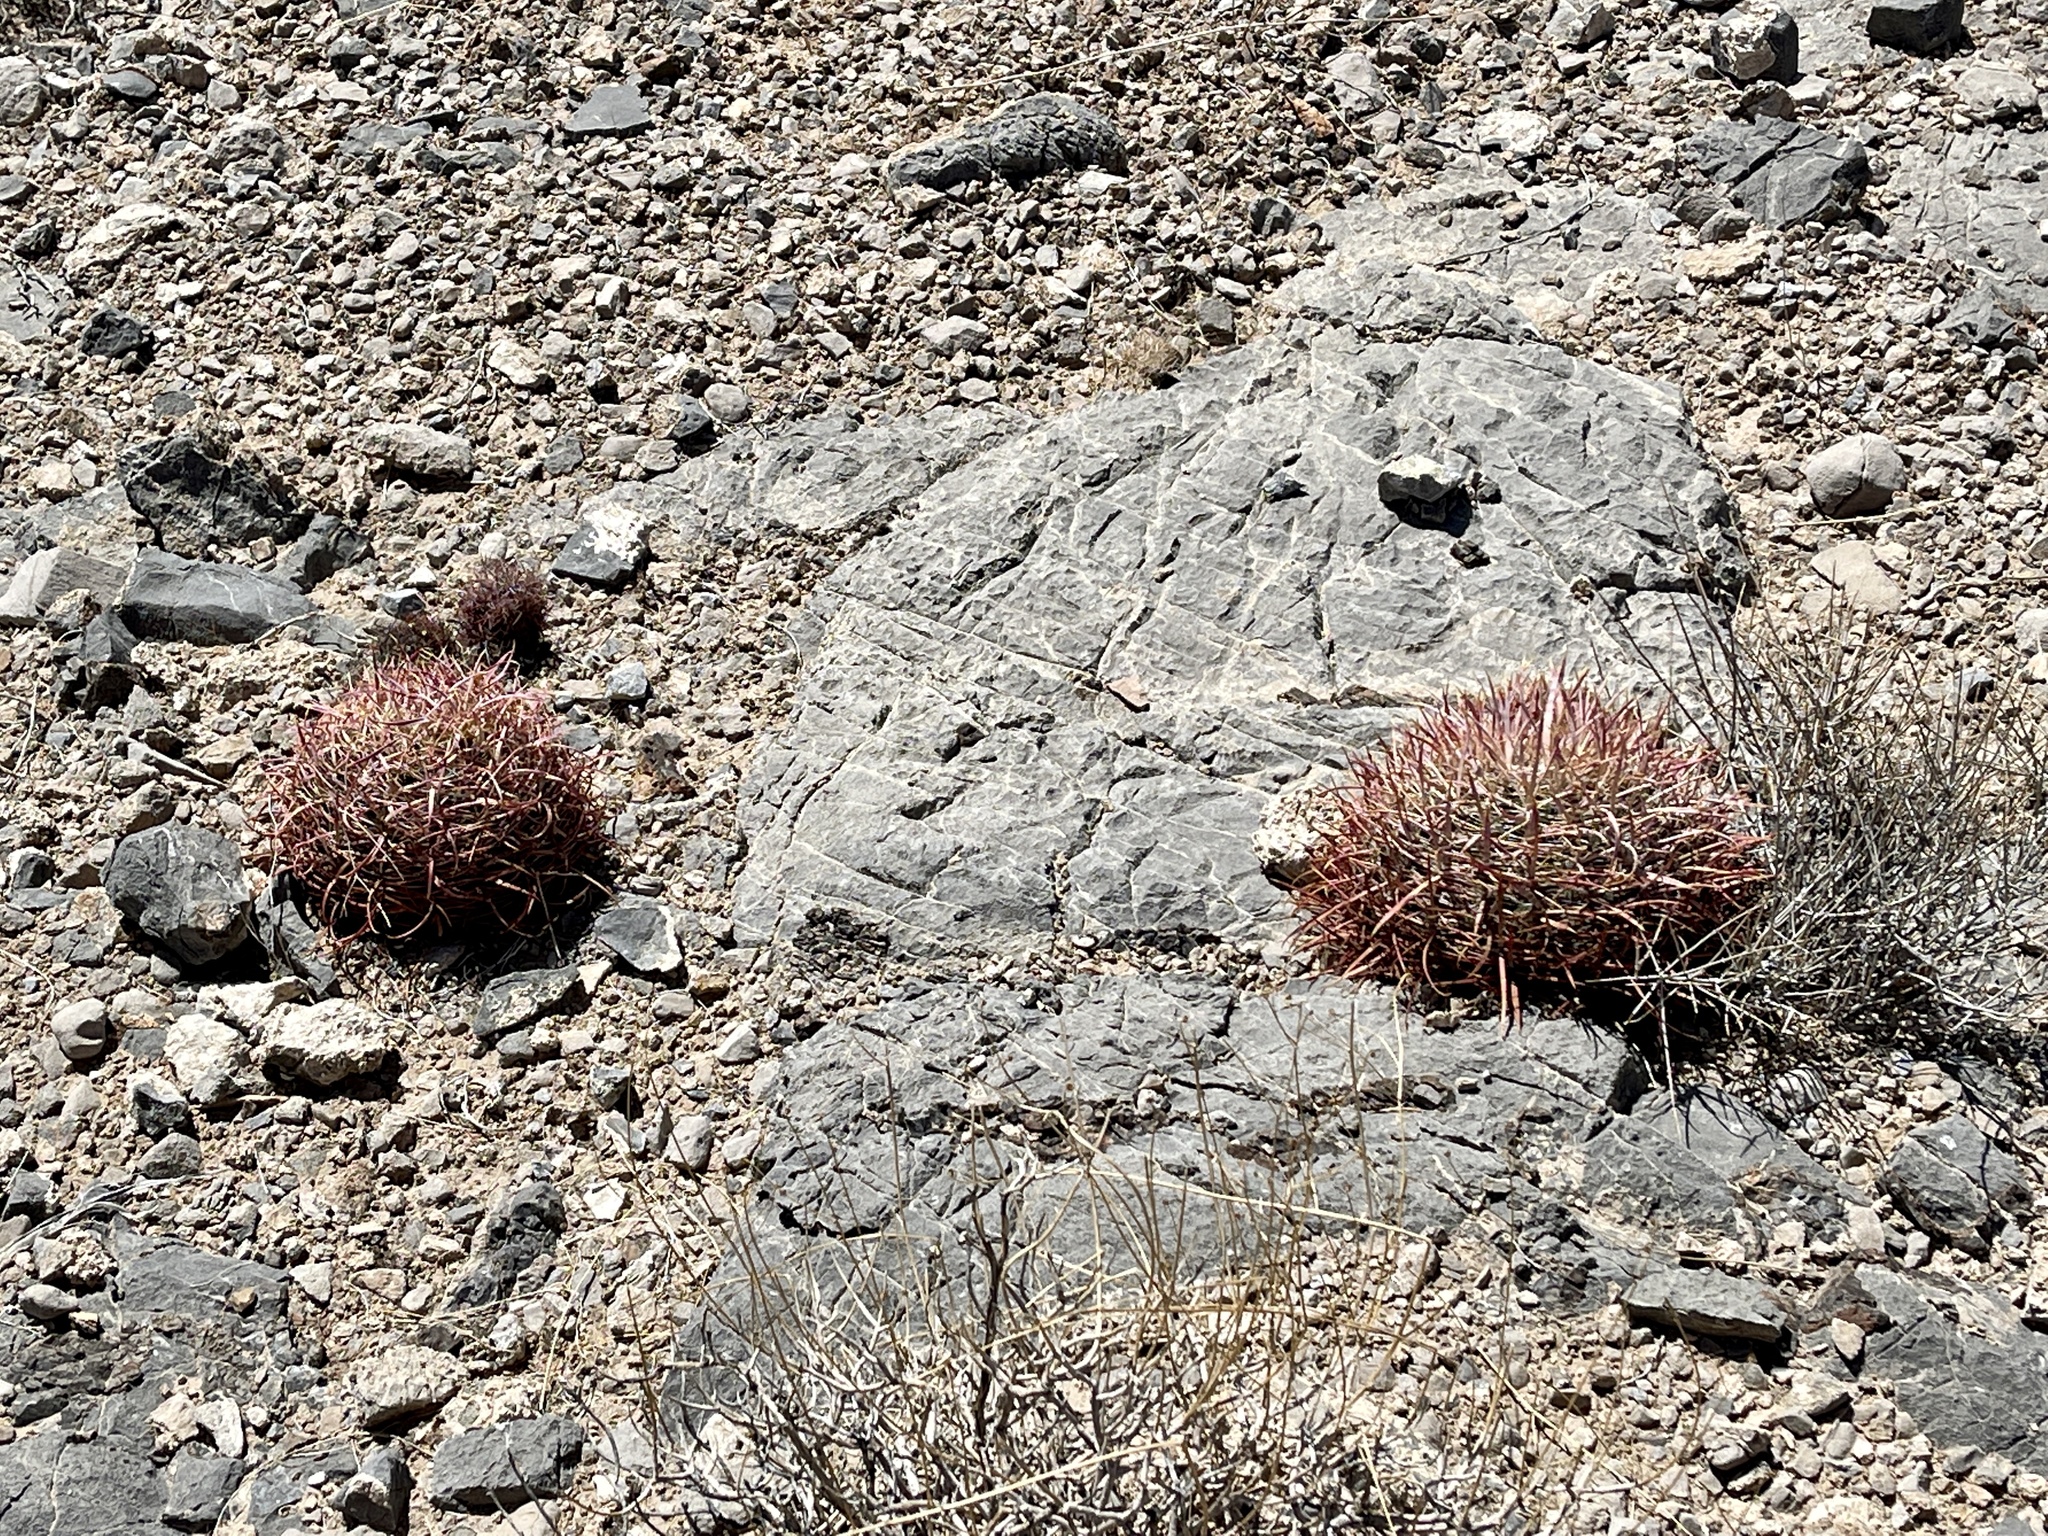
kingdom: Plantae
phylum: Tracheophyta
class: Magnoliopsida
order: Caryophyllales
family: Cactaceae
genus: Ferocactus
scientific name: Ferocactus cylindraceus
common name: California barrel cactus
